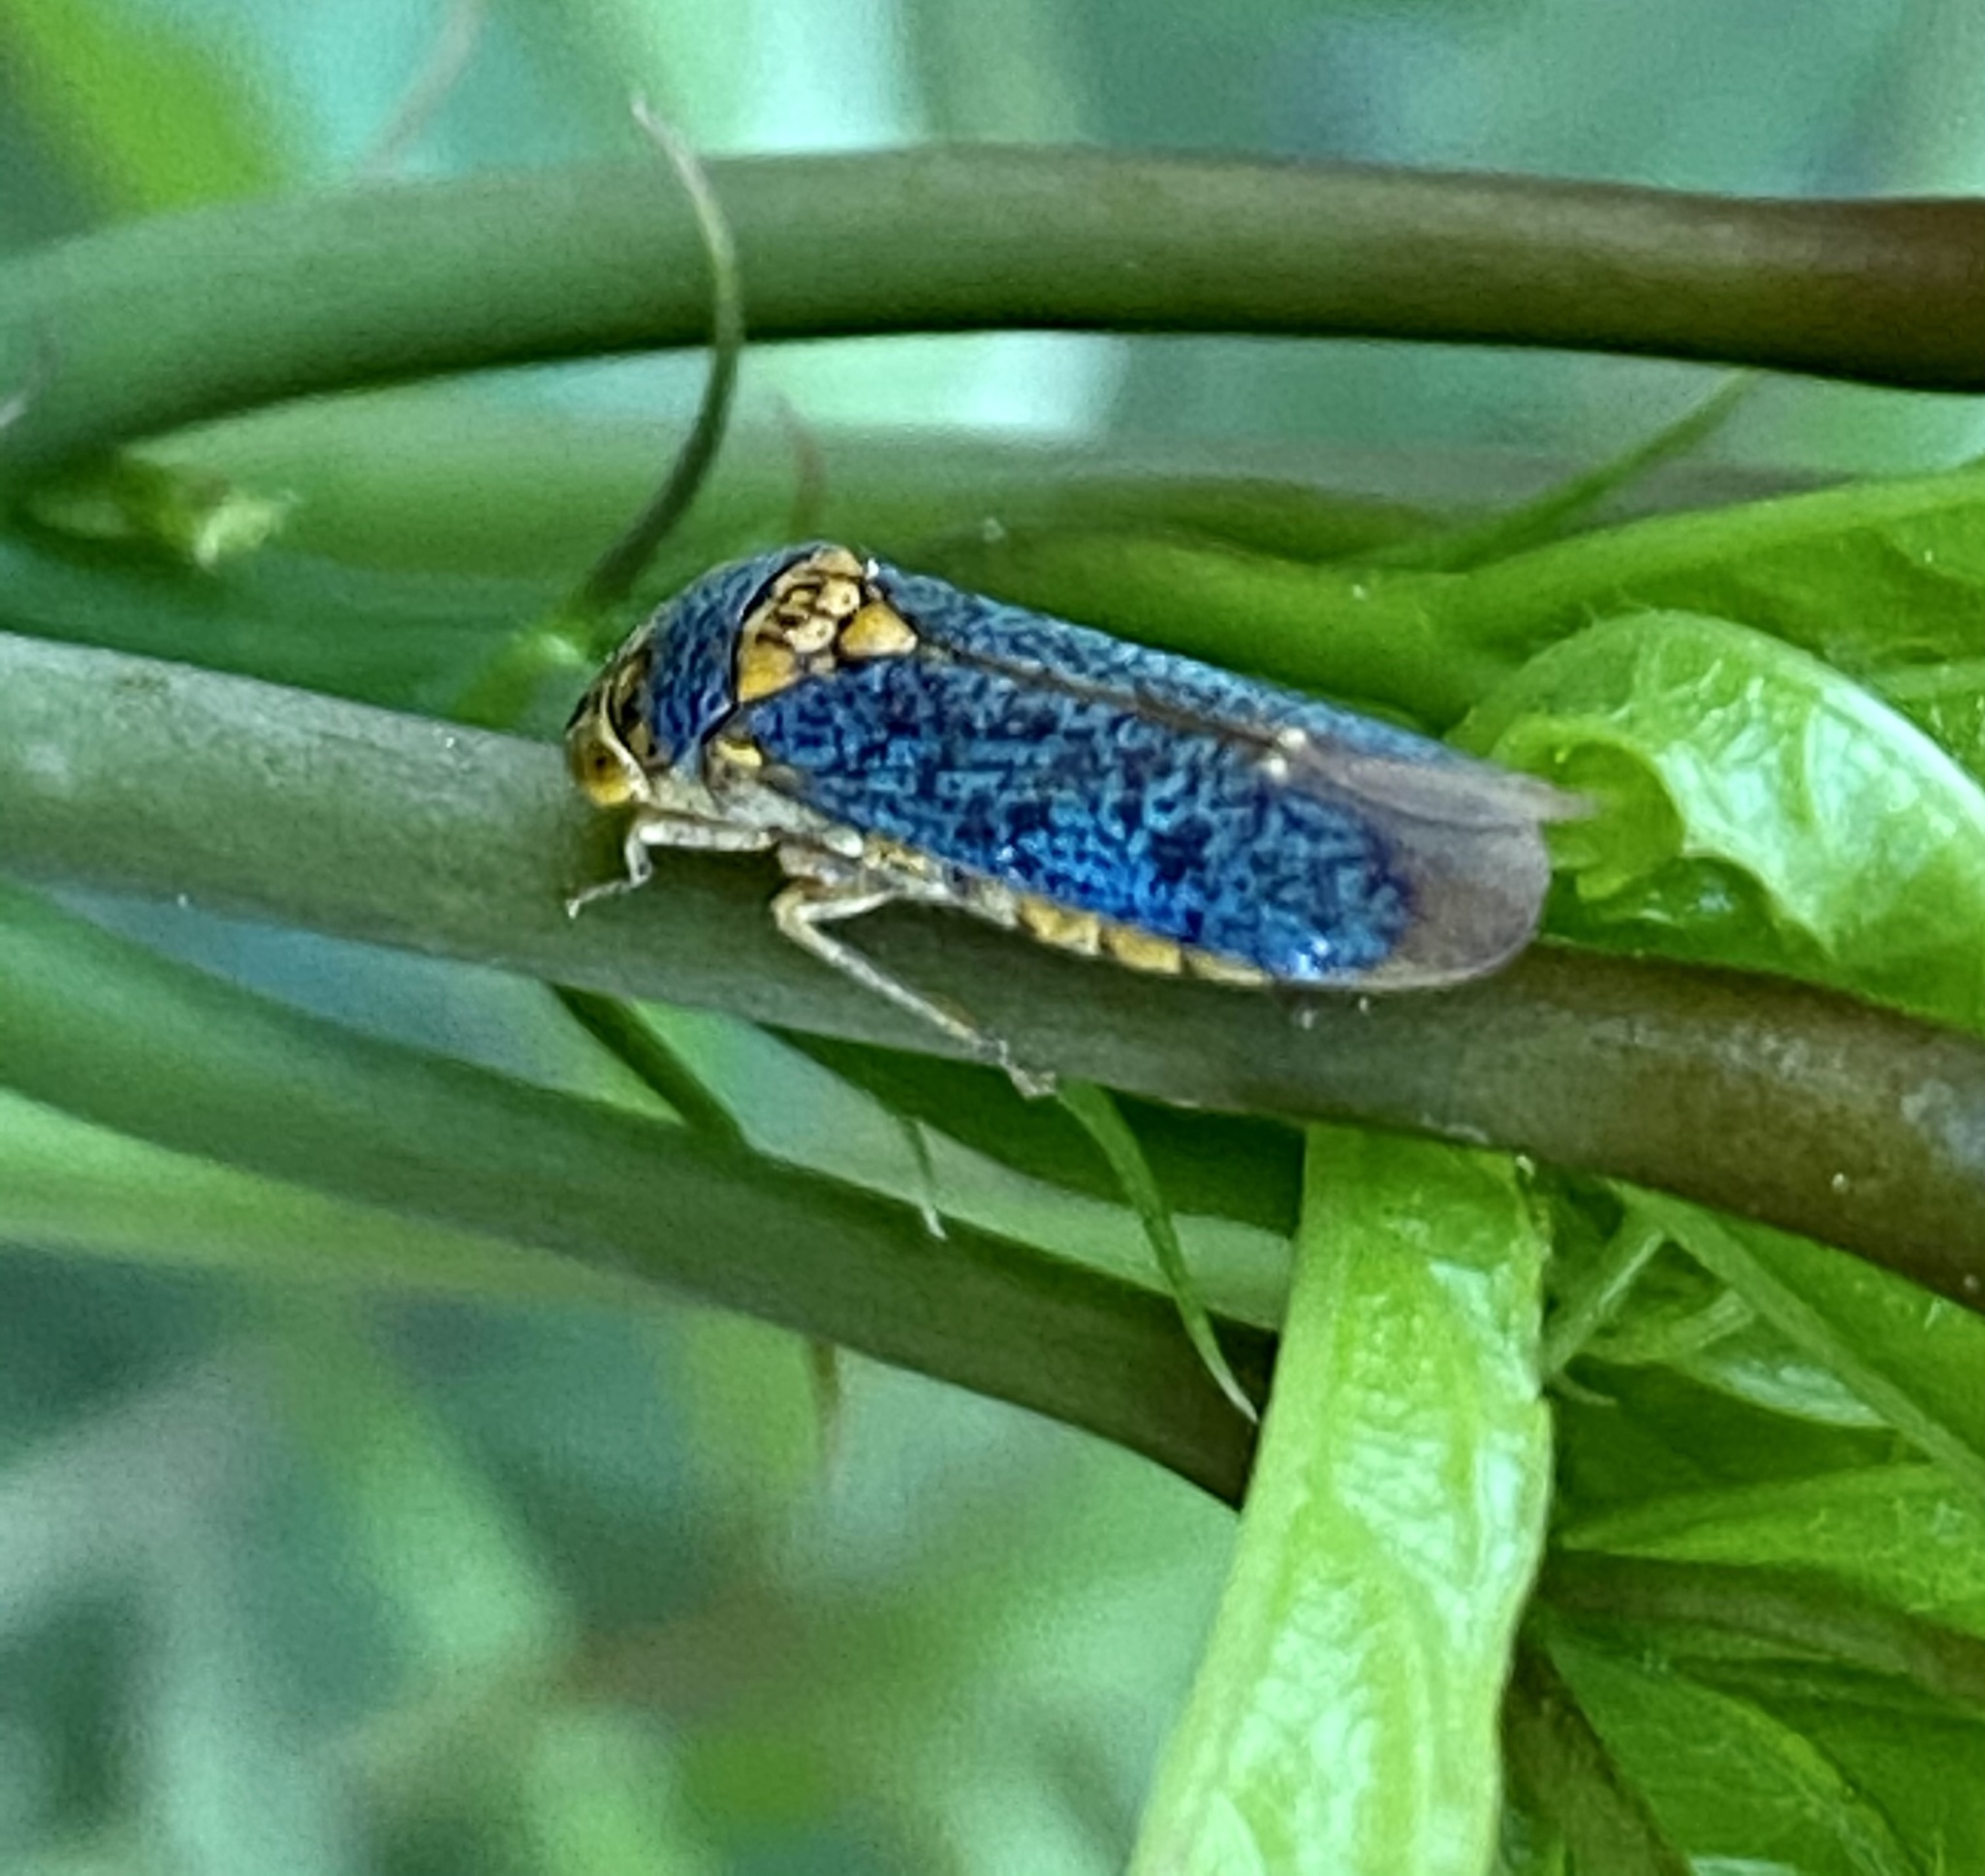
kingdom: Animalia
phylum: Arthropoda
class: Insecta
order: Hemiptera
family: Cicadellidae
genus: Oncometopia
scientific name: Oncometopia orbona
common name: Broad-headed sharpshooter
